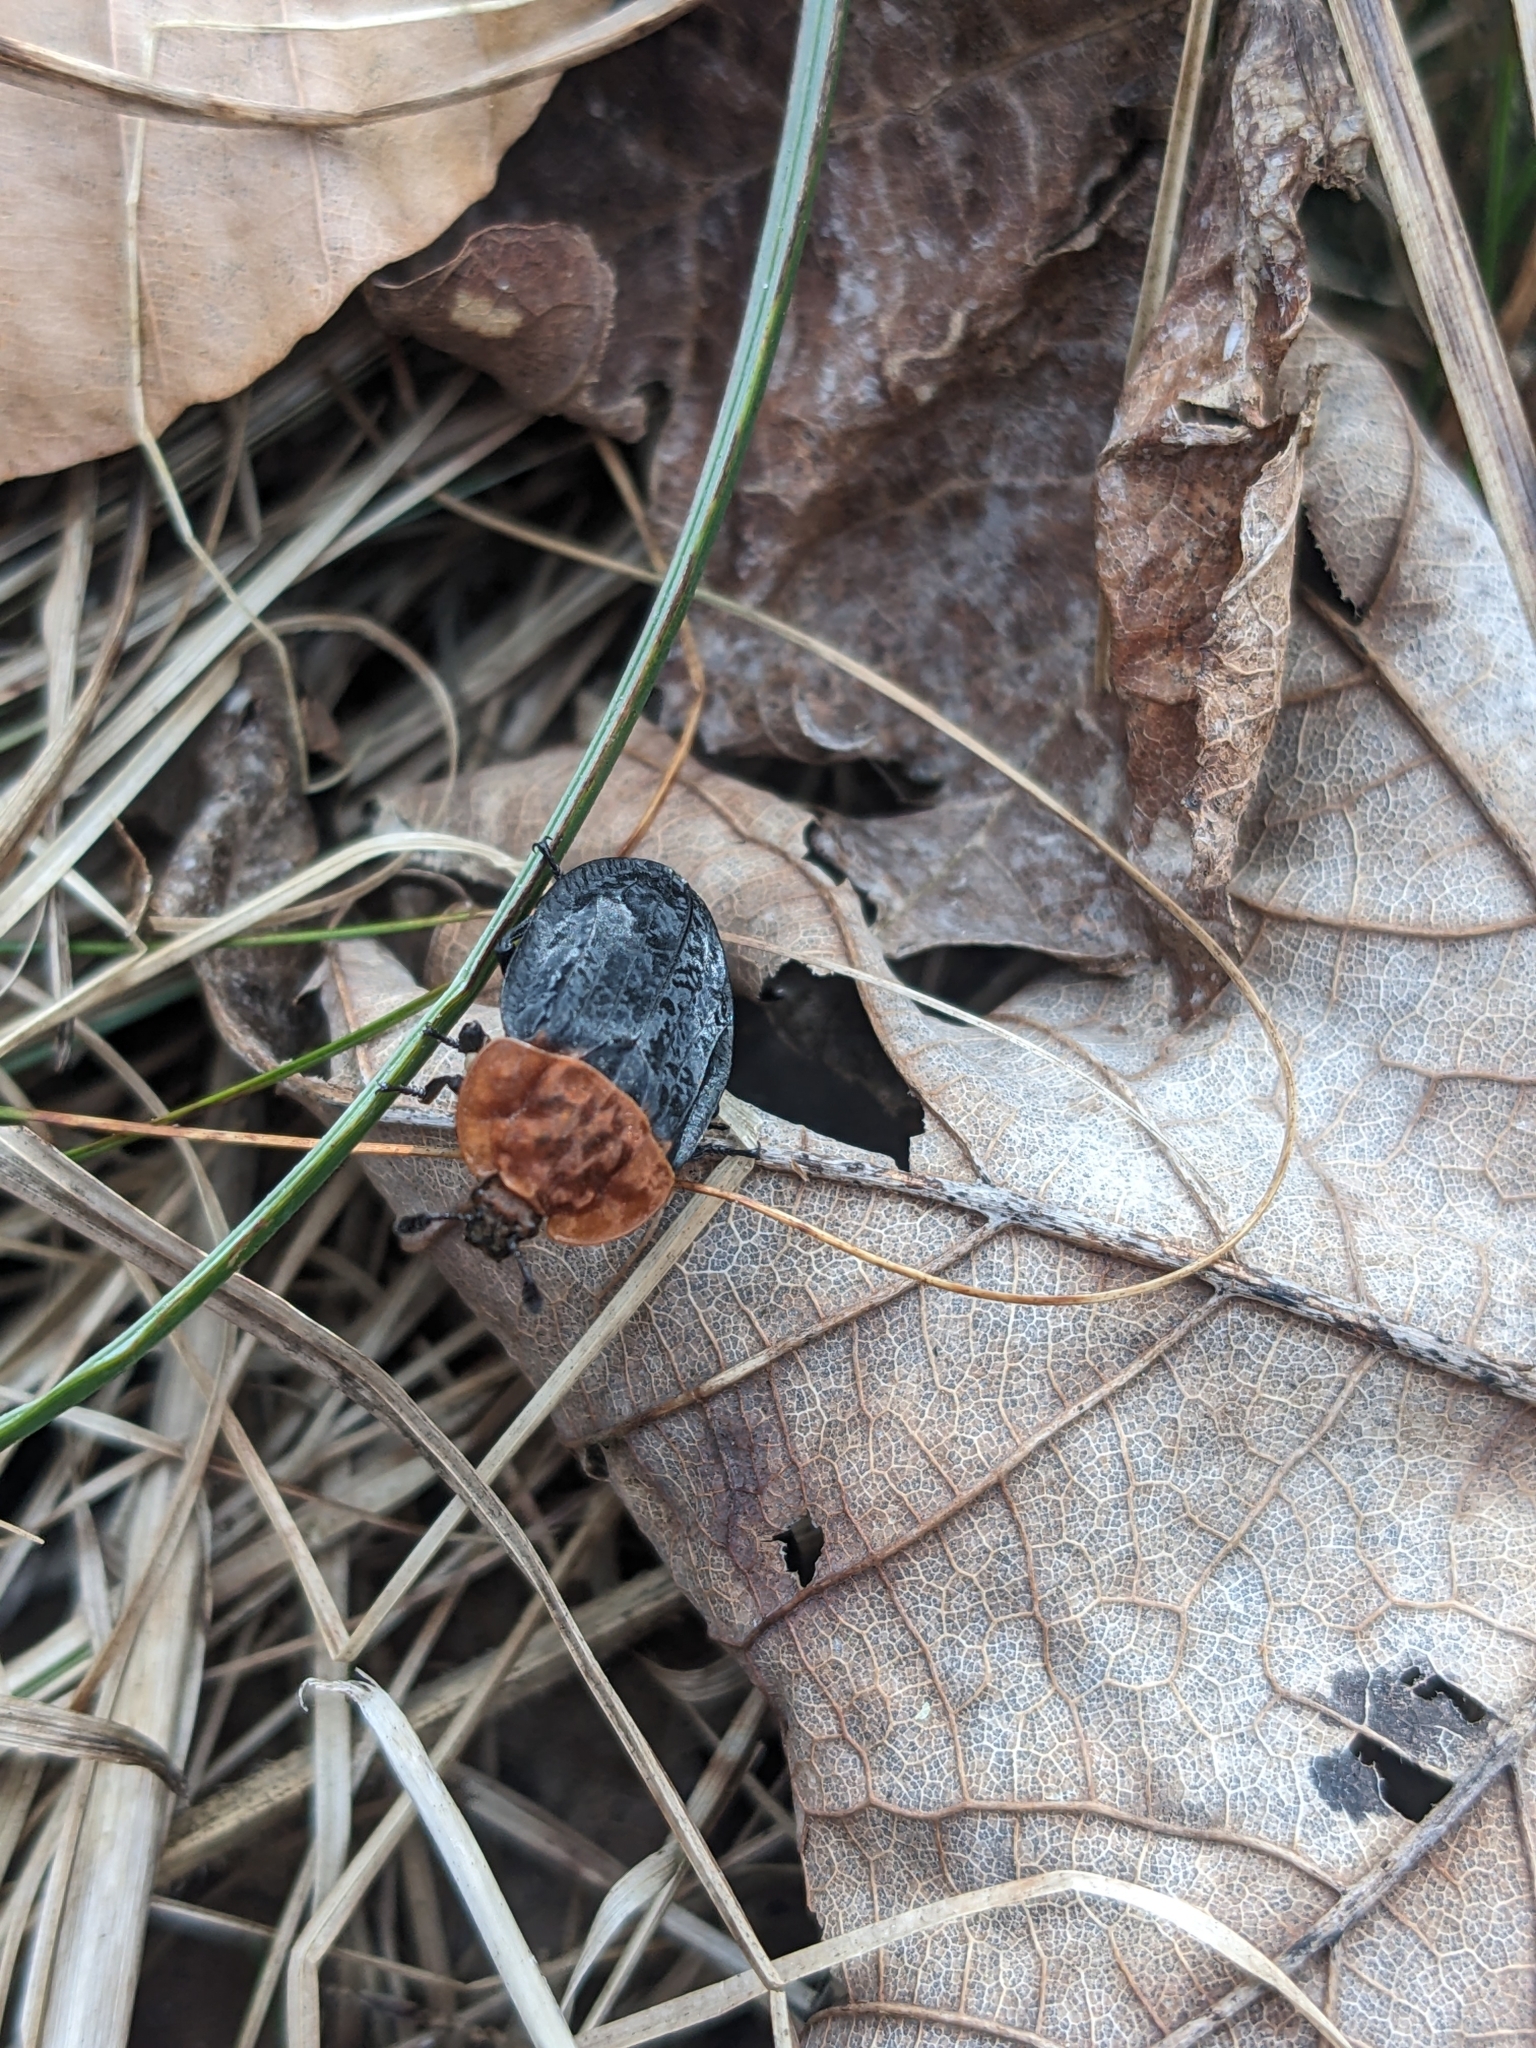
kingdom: Animalia
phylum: Arthropoda
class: Insecta
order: Coleoptera
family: Staphylinidae
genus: Oiceoptoma
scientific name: Oiceoptoma thoracicum
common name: Red-breasted carrion beetle
